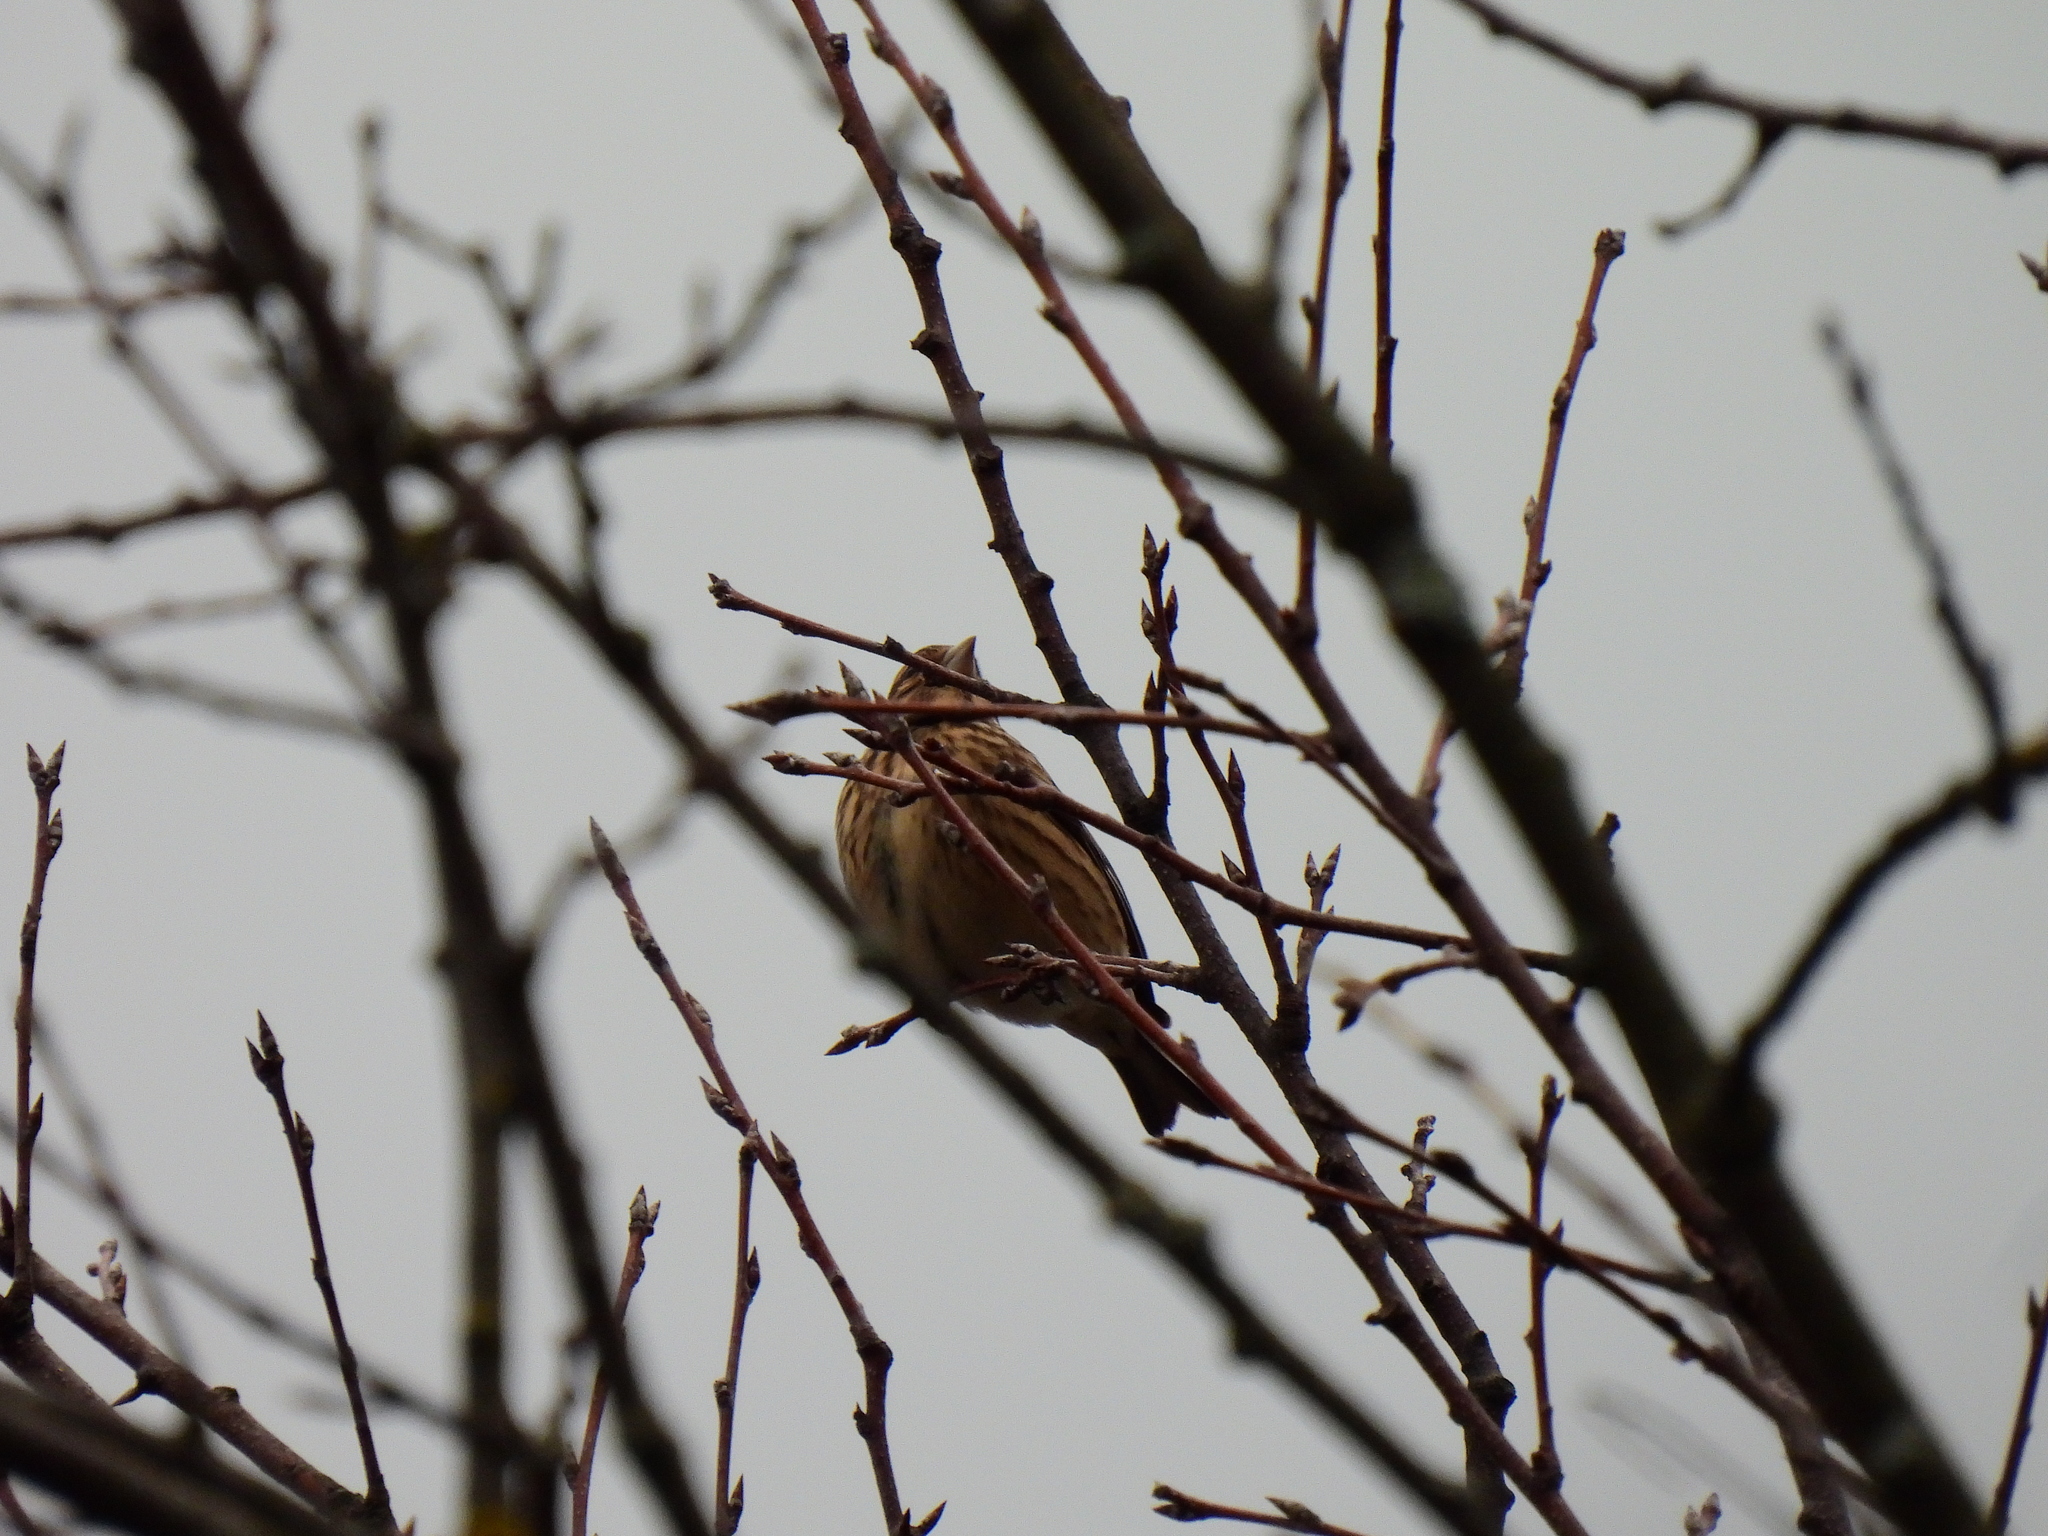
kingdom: Animalia
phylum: Chordata
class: Aves
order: Passeriformes
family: Fringillidae
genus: Linaria
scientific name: Linaria cannabina
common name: Common linnet
